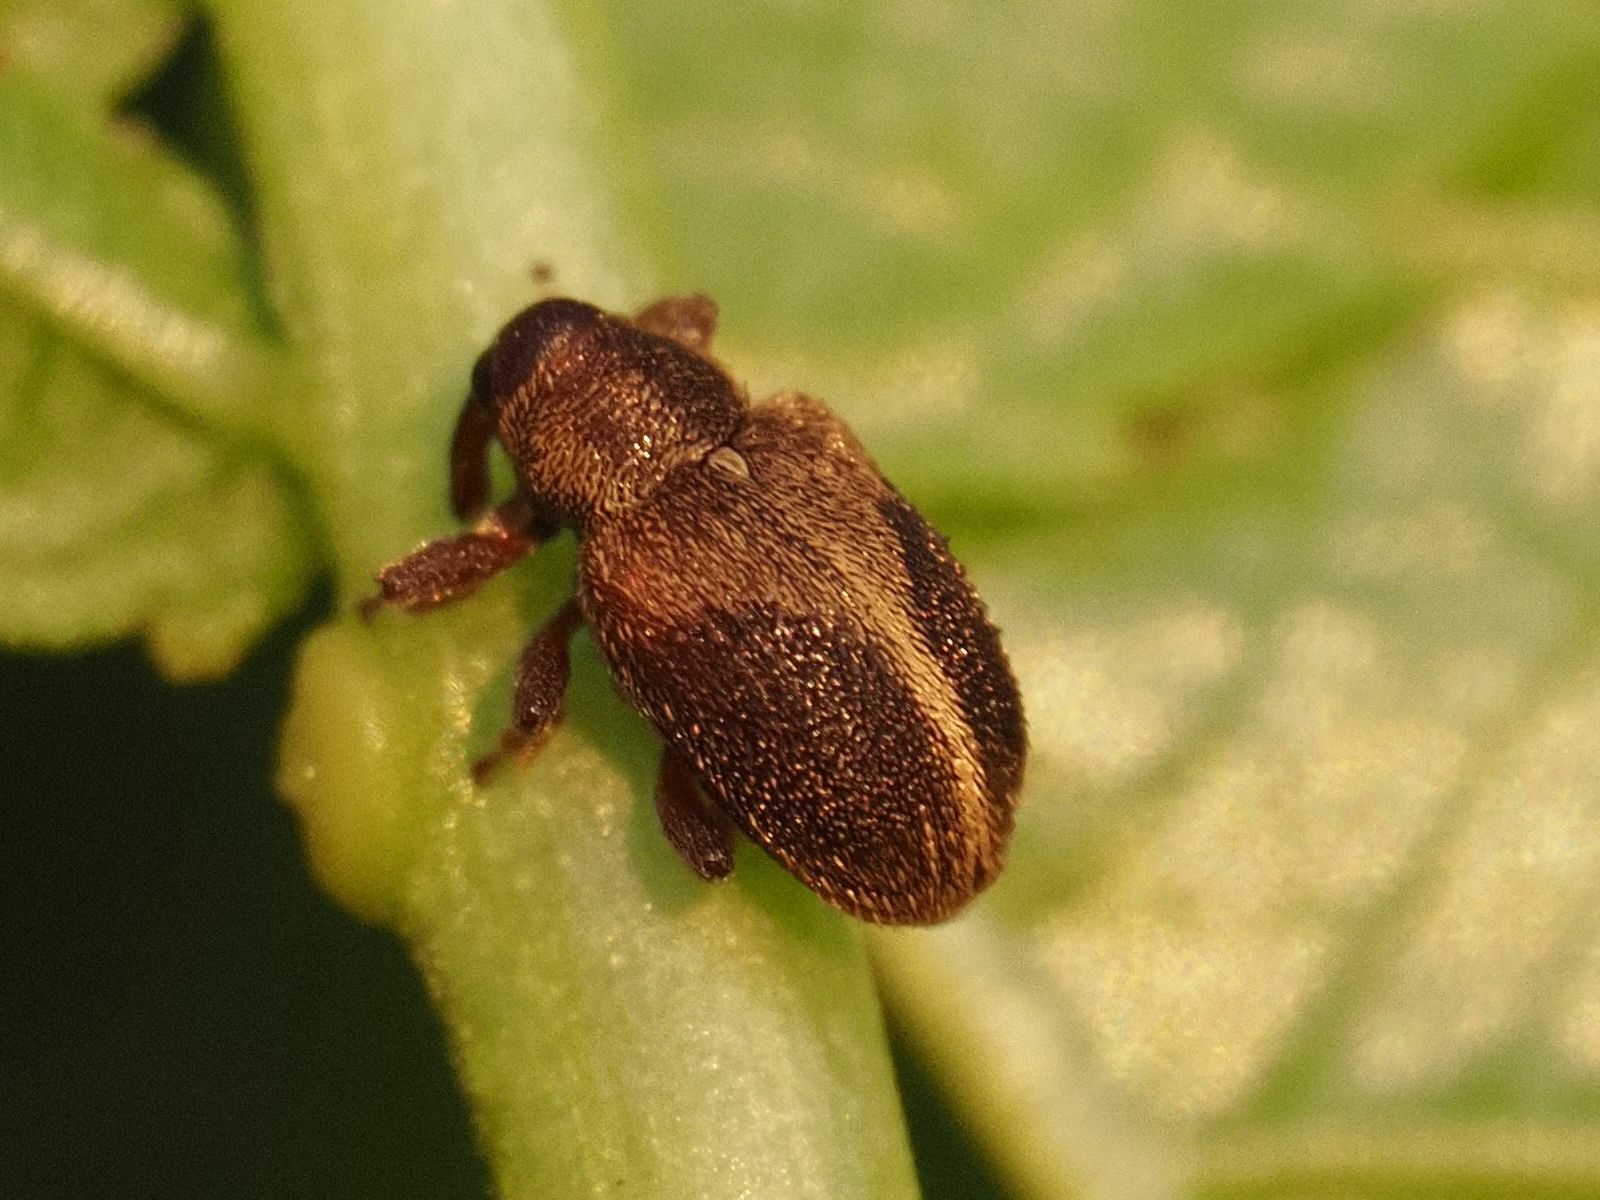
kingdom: Animalia
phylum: Arthropoda
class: Insecta
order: Coleoptera
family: Curculionidae
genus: Lignyodes
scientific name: Lignyodes enucleator
